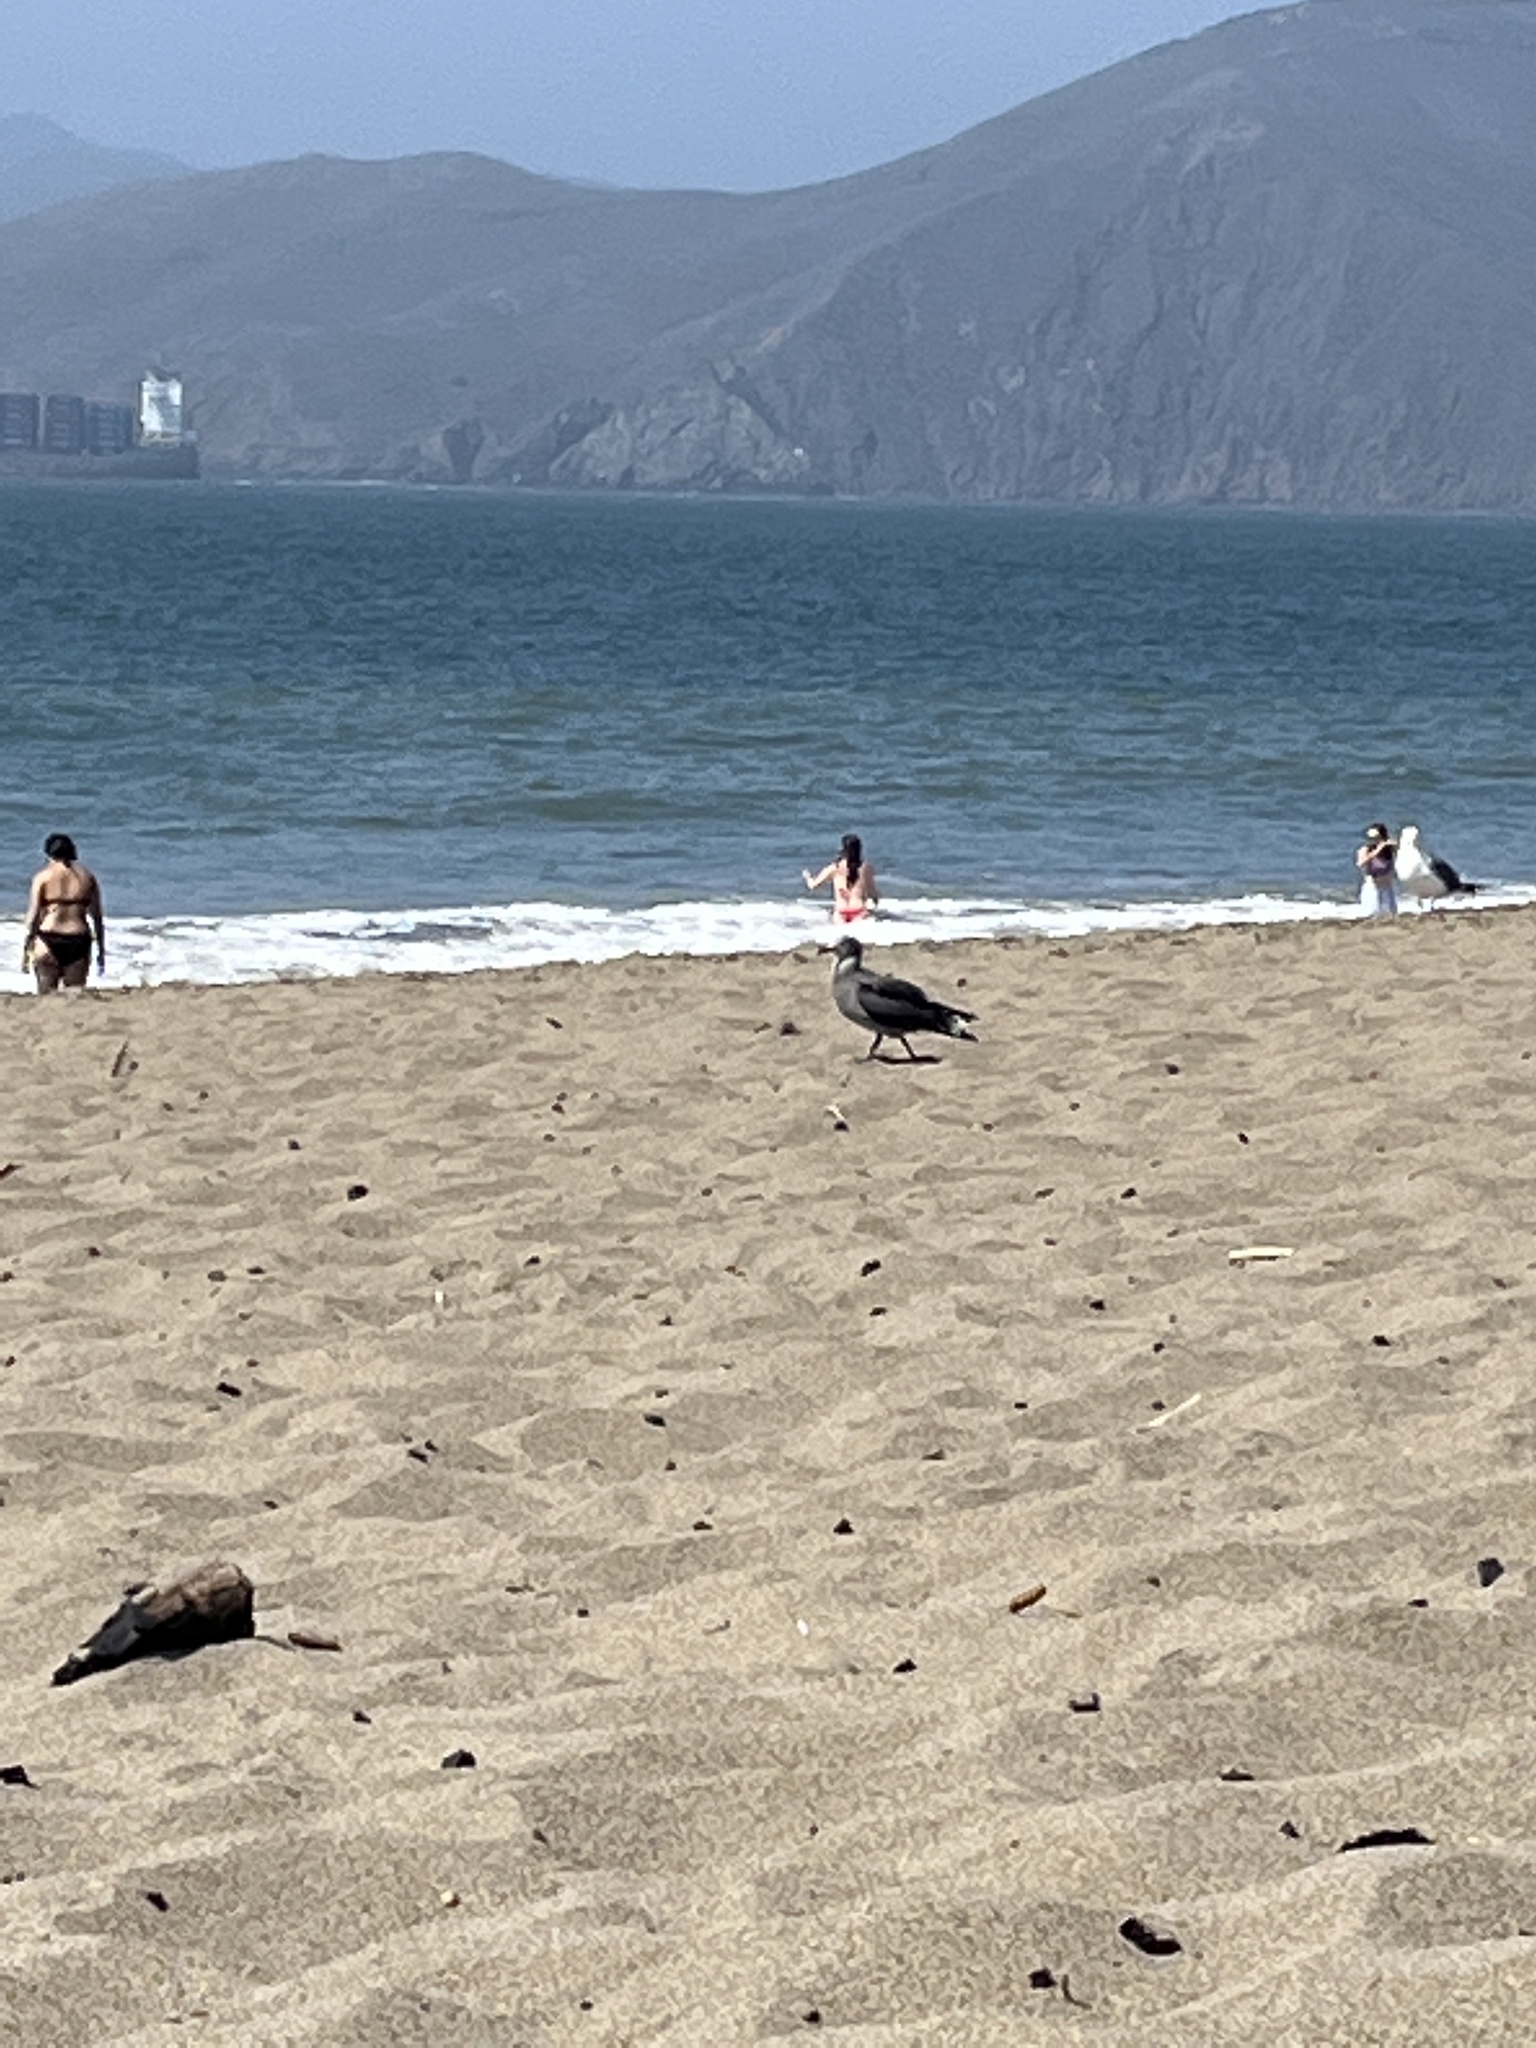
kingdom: Animalia
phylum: Chordata
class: Aves
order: Charadriiformes
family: Laridae
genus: Larus
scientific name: Larus heermanni
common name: Heermann's gull
